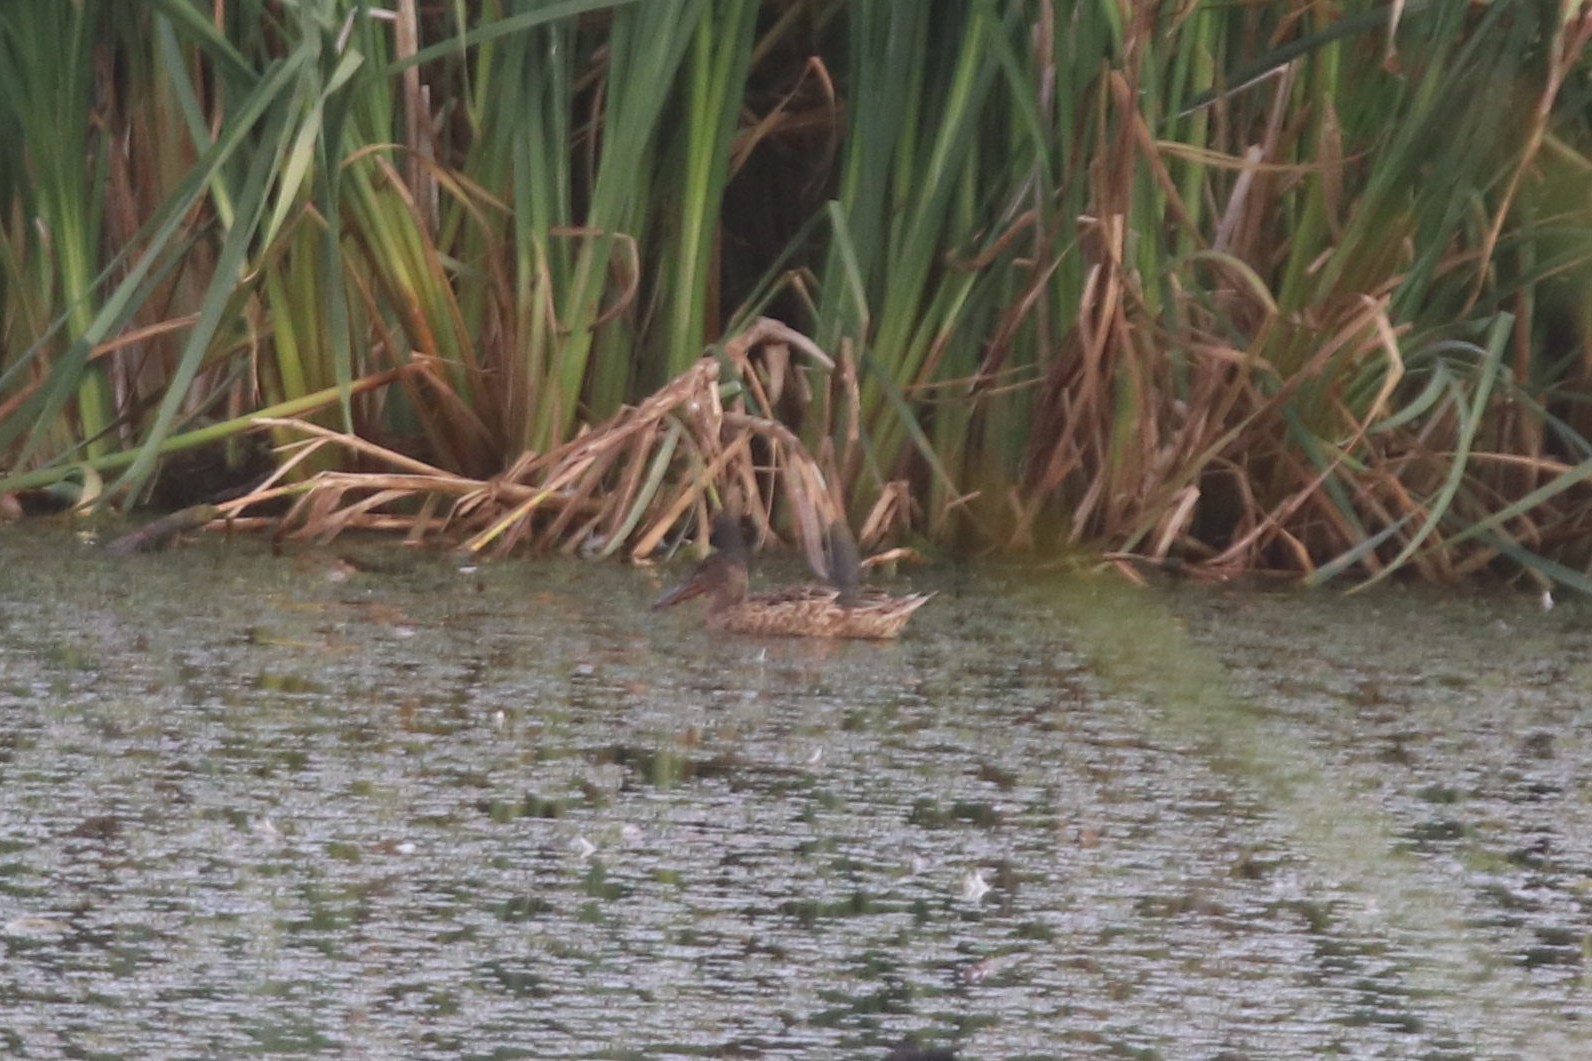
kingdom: Animalia
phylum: Chordata
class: Aves
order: Anseriformes
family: Anatidae
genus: Spatula
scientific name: Spatula clypeata
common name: Northern shoveler
